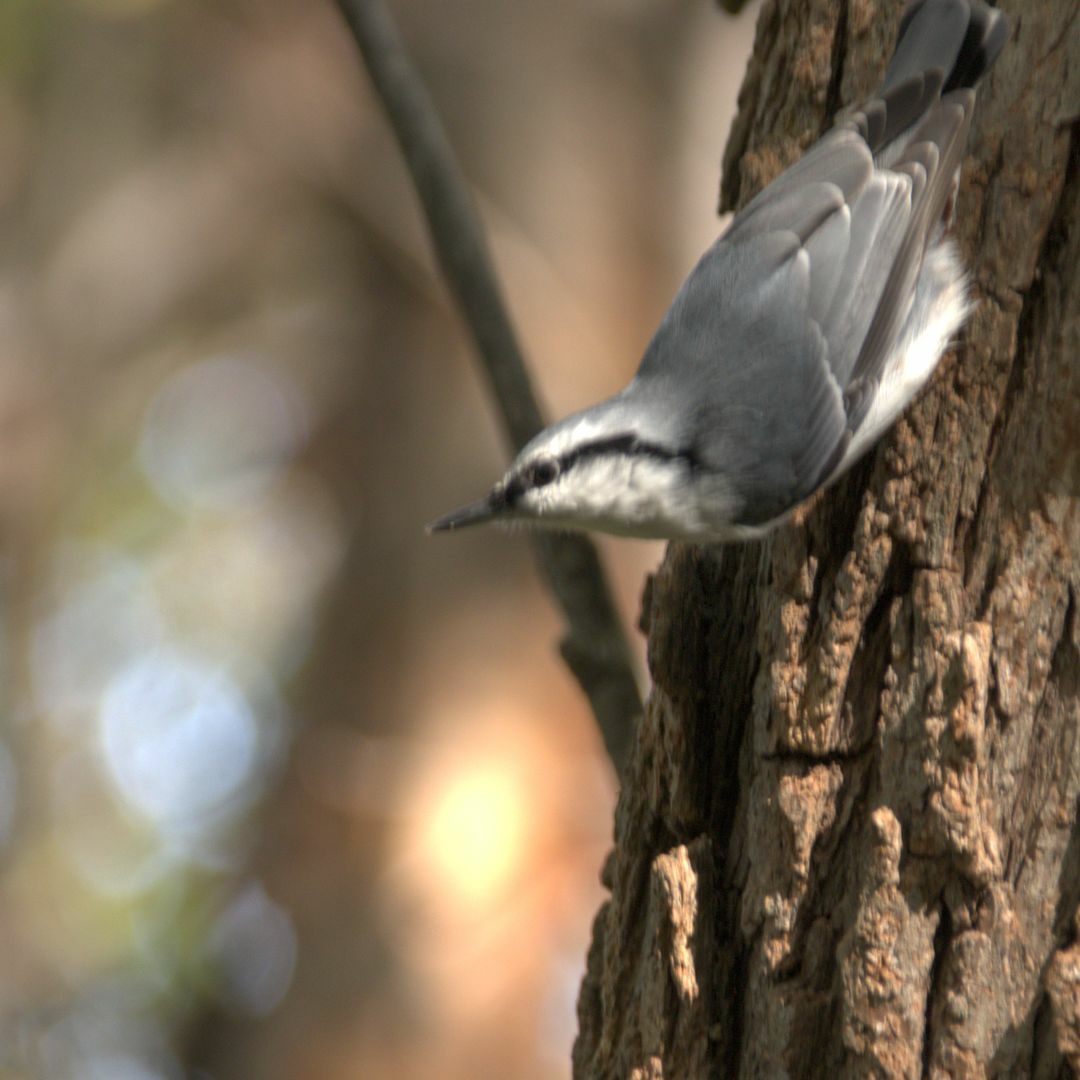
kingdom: Animalia
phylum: Chordata
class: Aves
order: Passeriformes
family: Sittidae
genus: Sitta
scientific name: Sitta europaea
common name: Eurasian nuthatch
